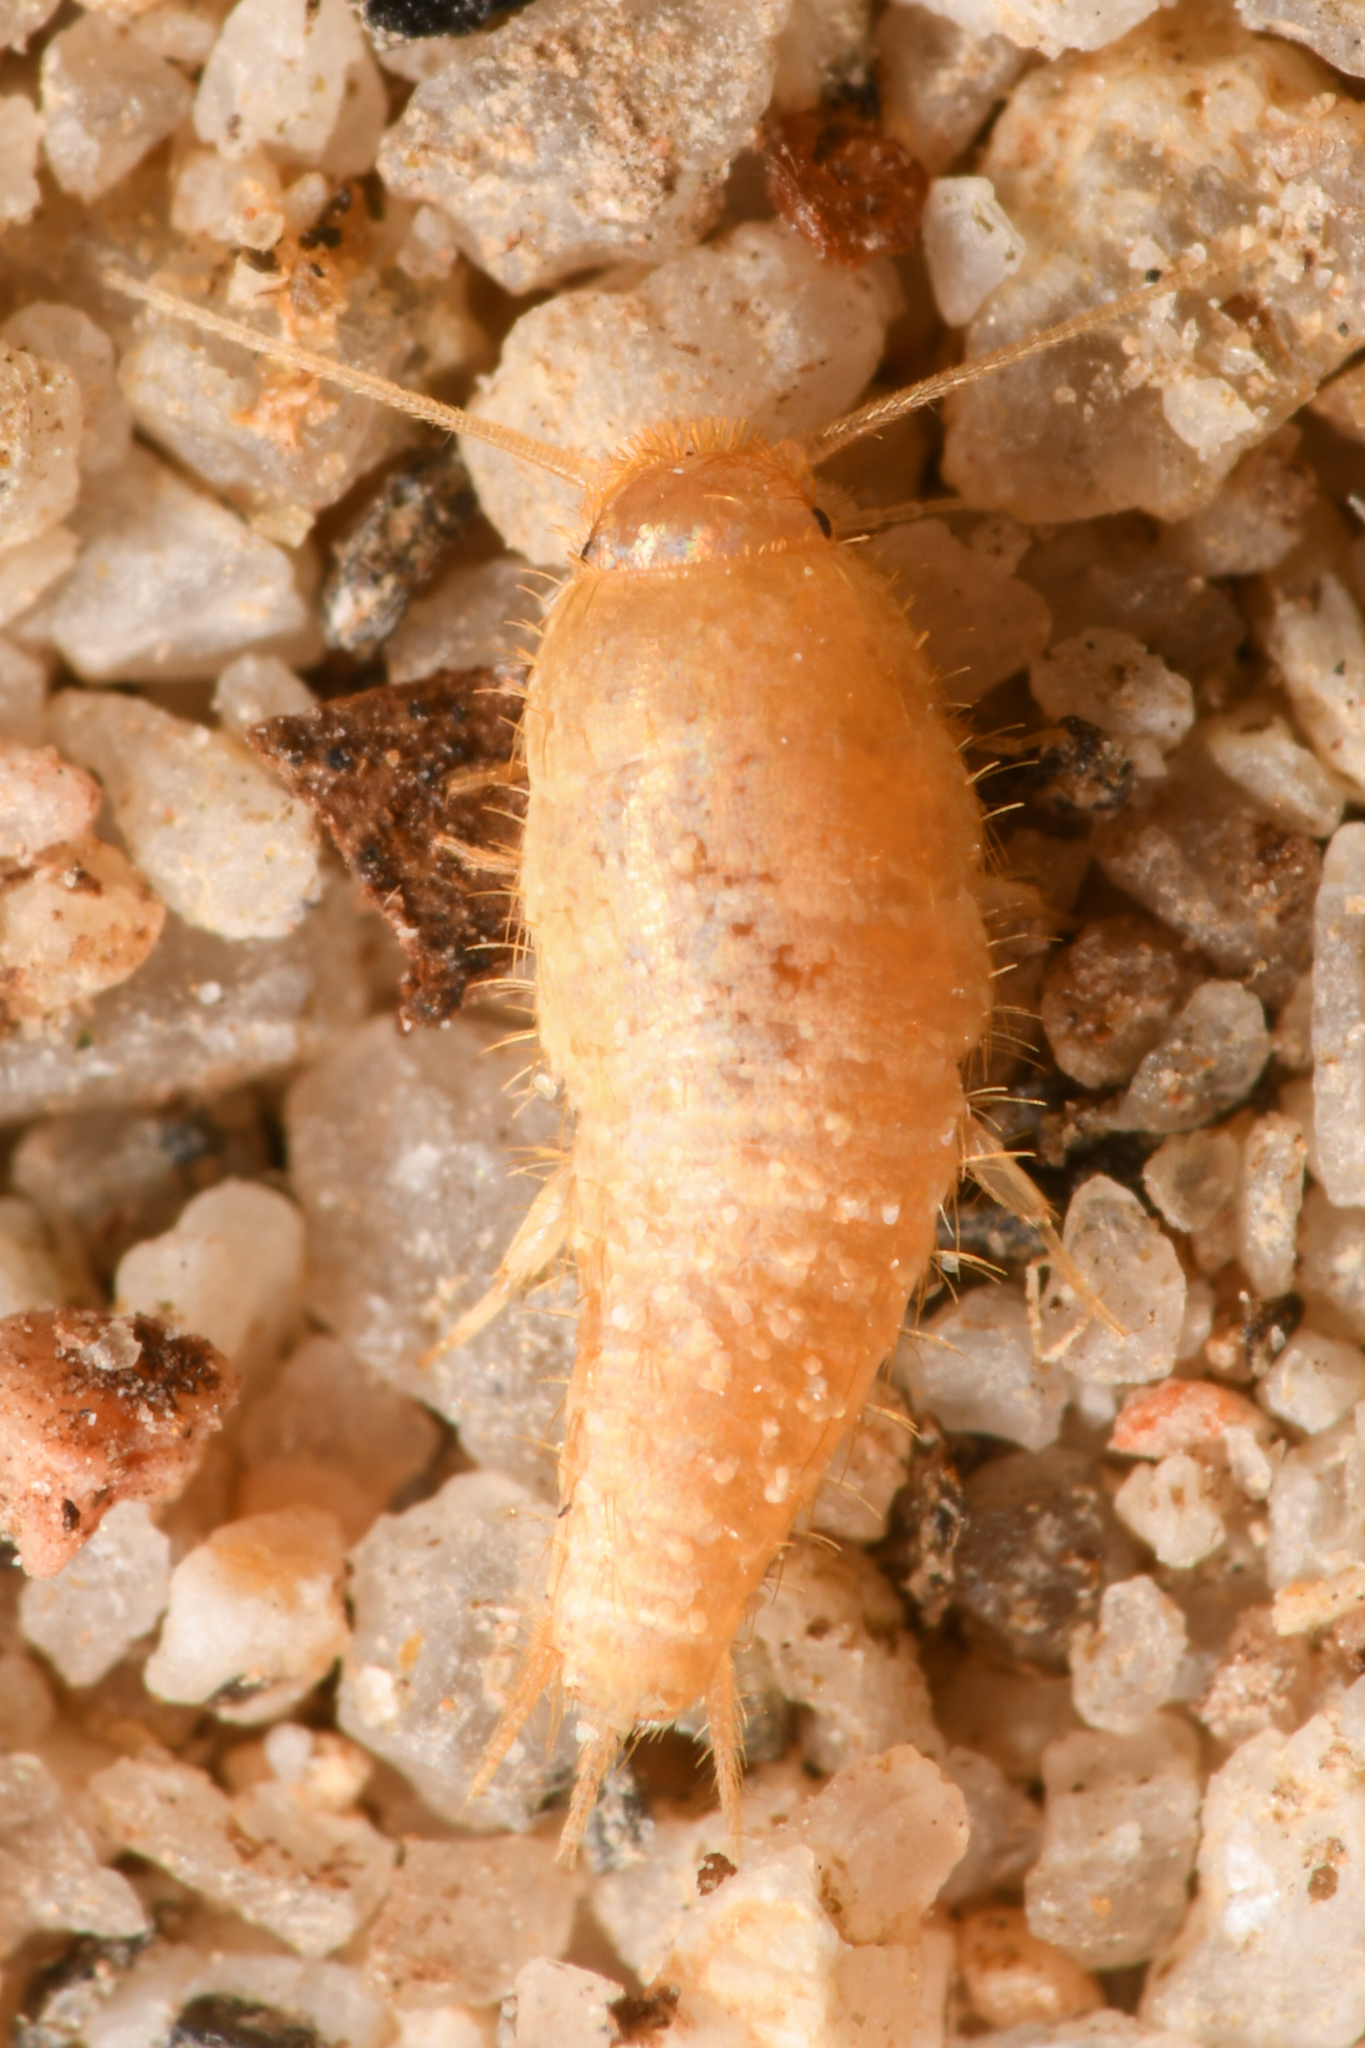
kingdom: Animalia
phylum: Arthropoda
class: Insecta
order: Zygentoma
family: Lepismatidae
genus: Mirolepisma
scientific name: Mirolepisma deserticola
